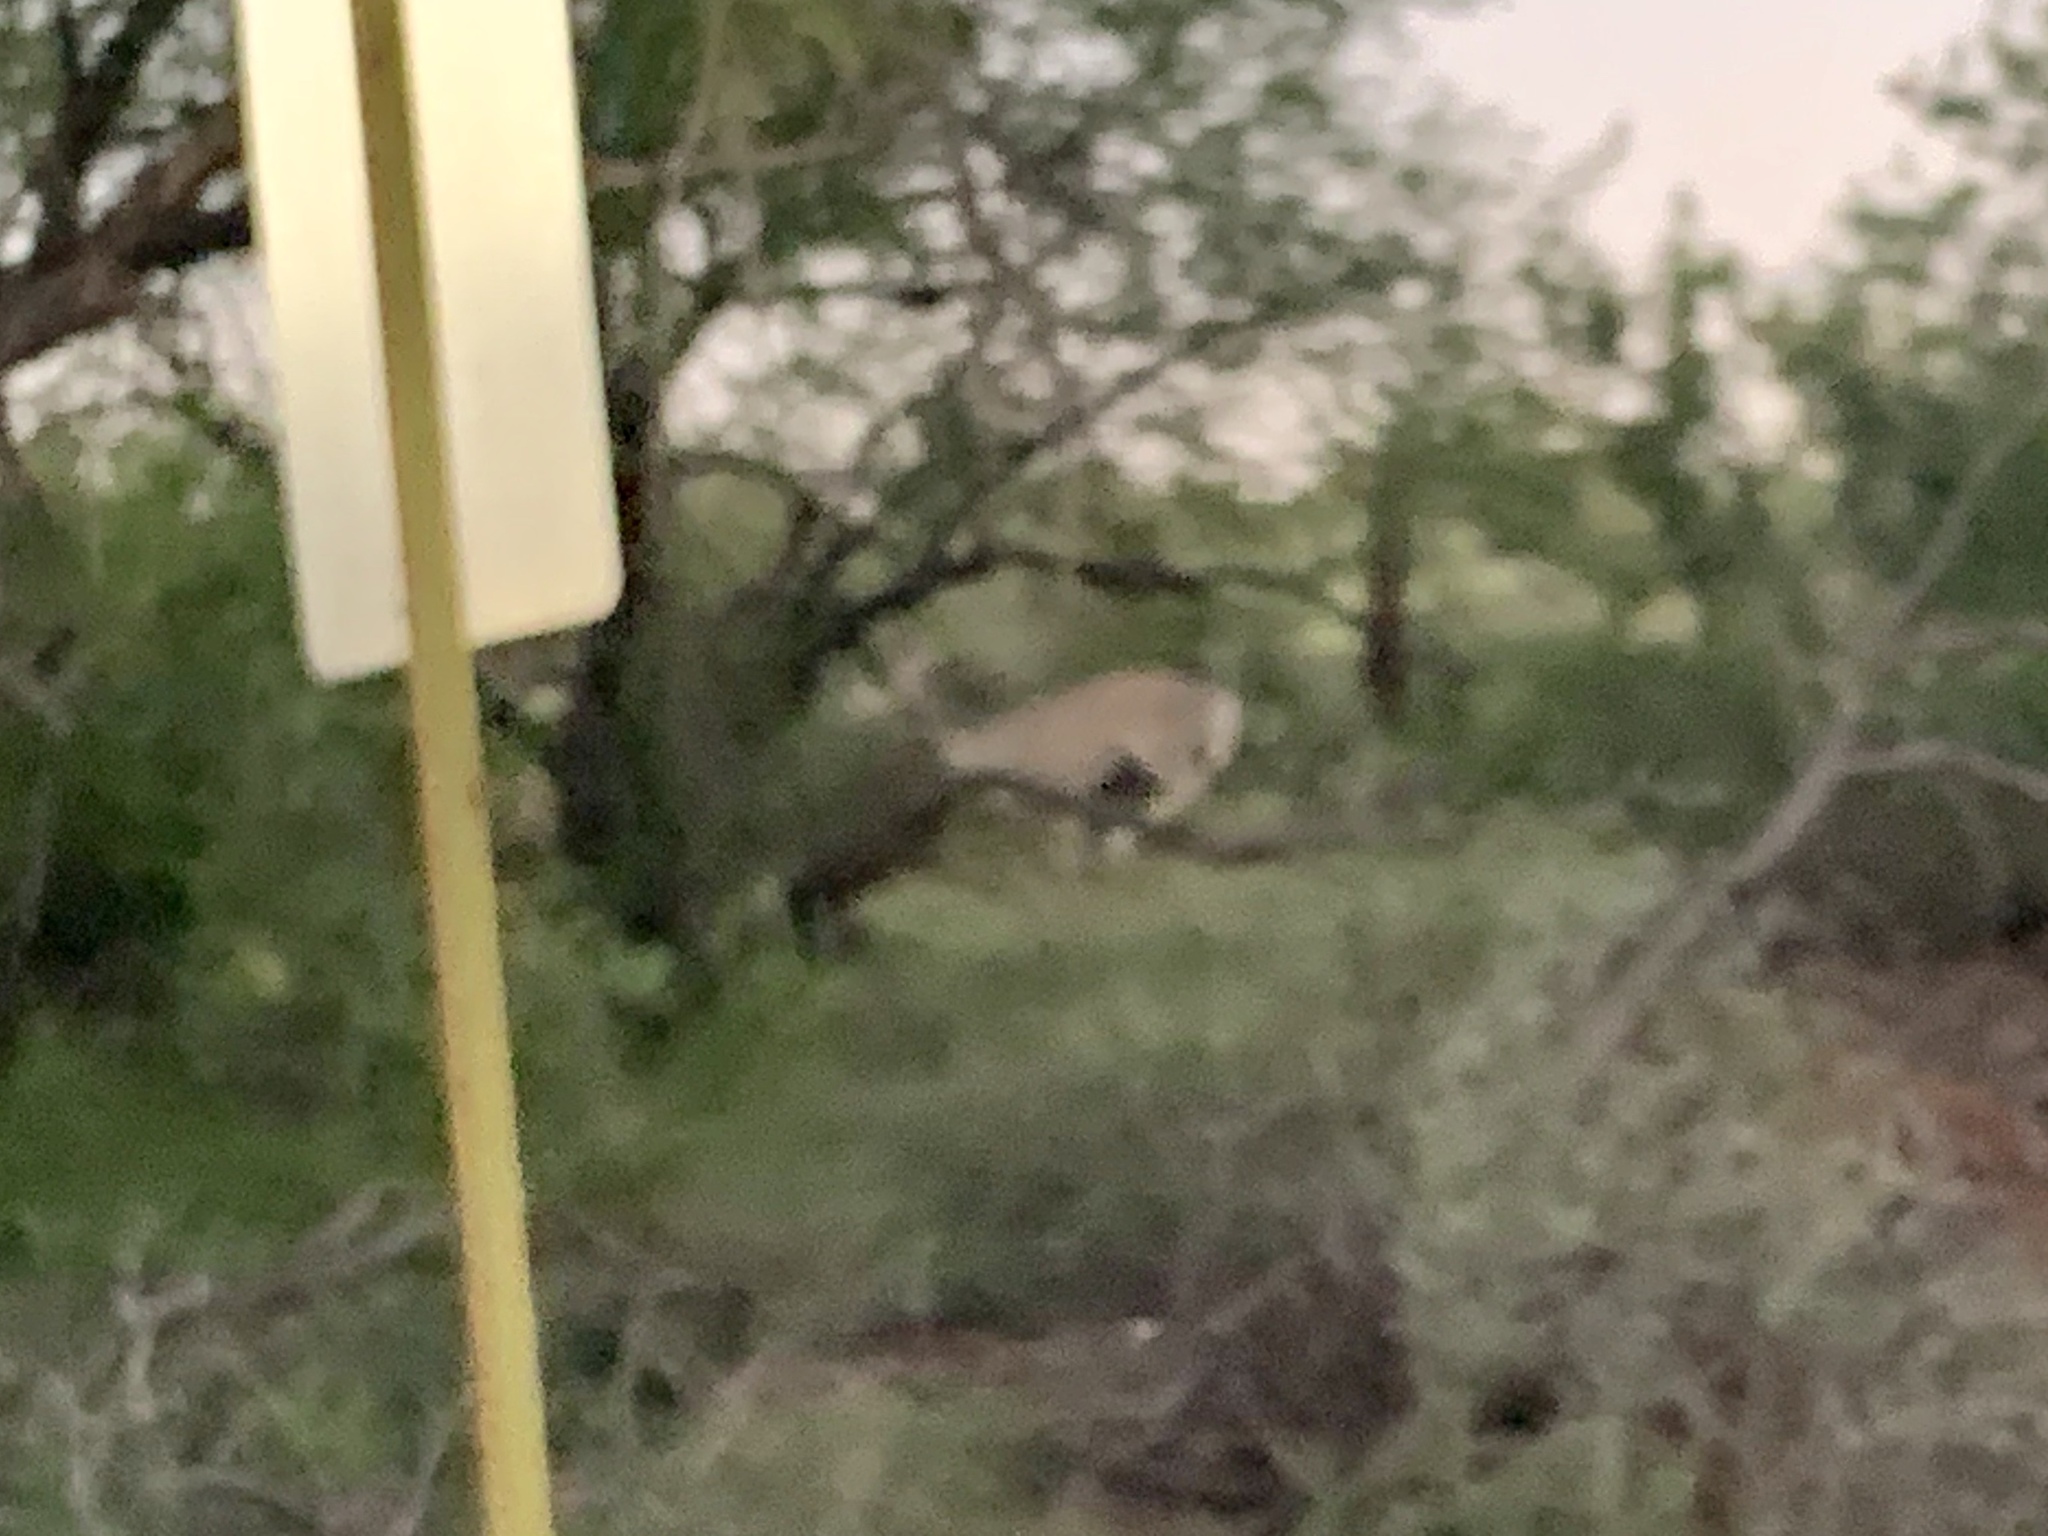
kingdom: Animalia
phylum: Chordata
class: Mammalia
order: Artiodactyla
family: Cervidae
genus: Odocoileus
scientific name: Odocoileus virginianus
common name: White-tailed deer
